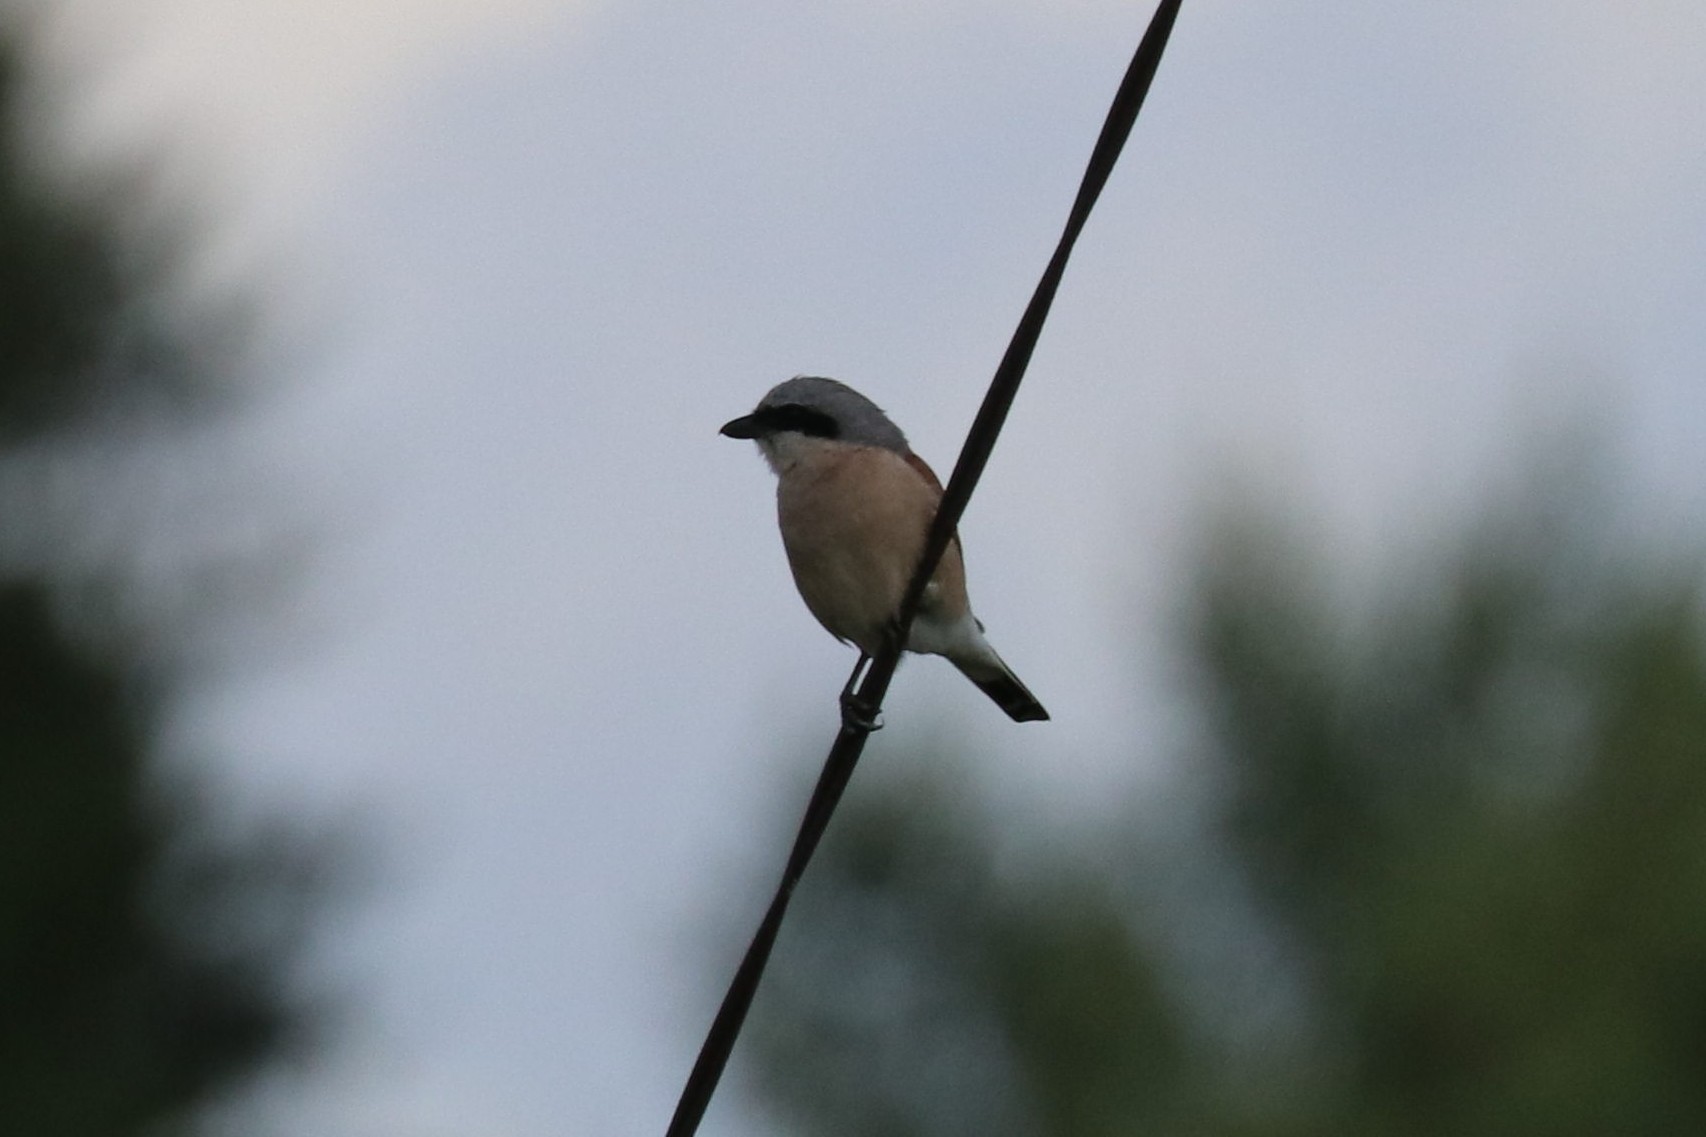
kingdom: Animalia
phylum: Chordata
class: Aves
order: Passeriformes
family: Laniidae
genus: Lanius
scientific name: Lanius collurio
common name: Red-backed shrike
